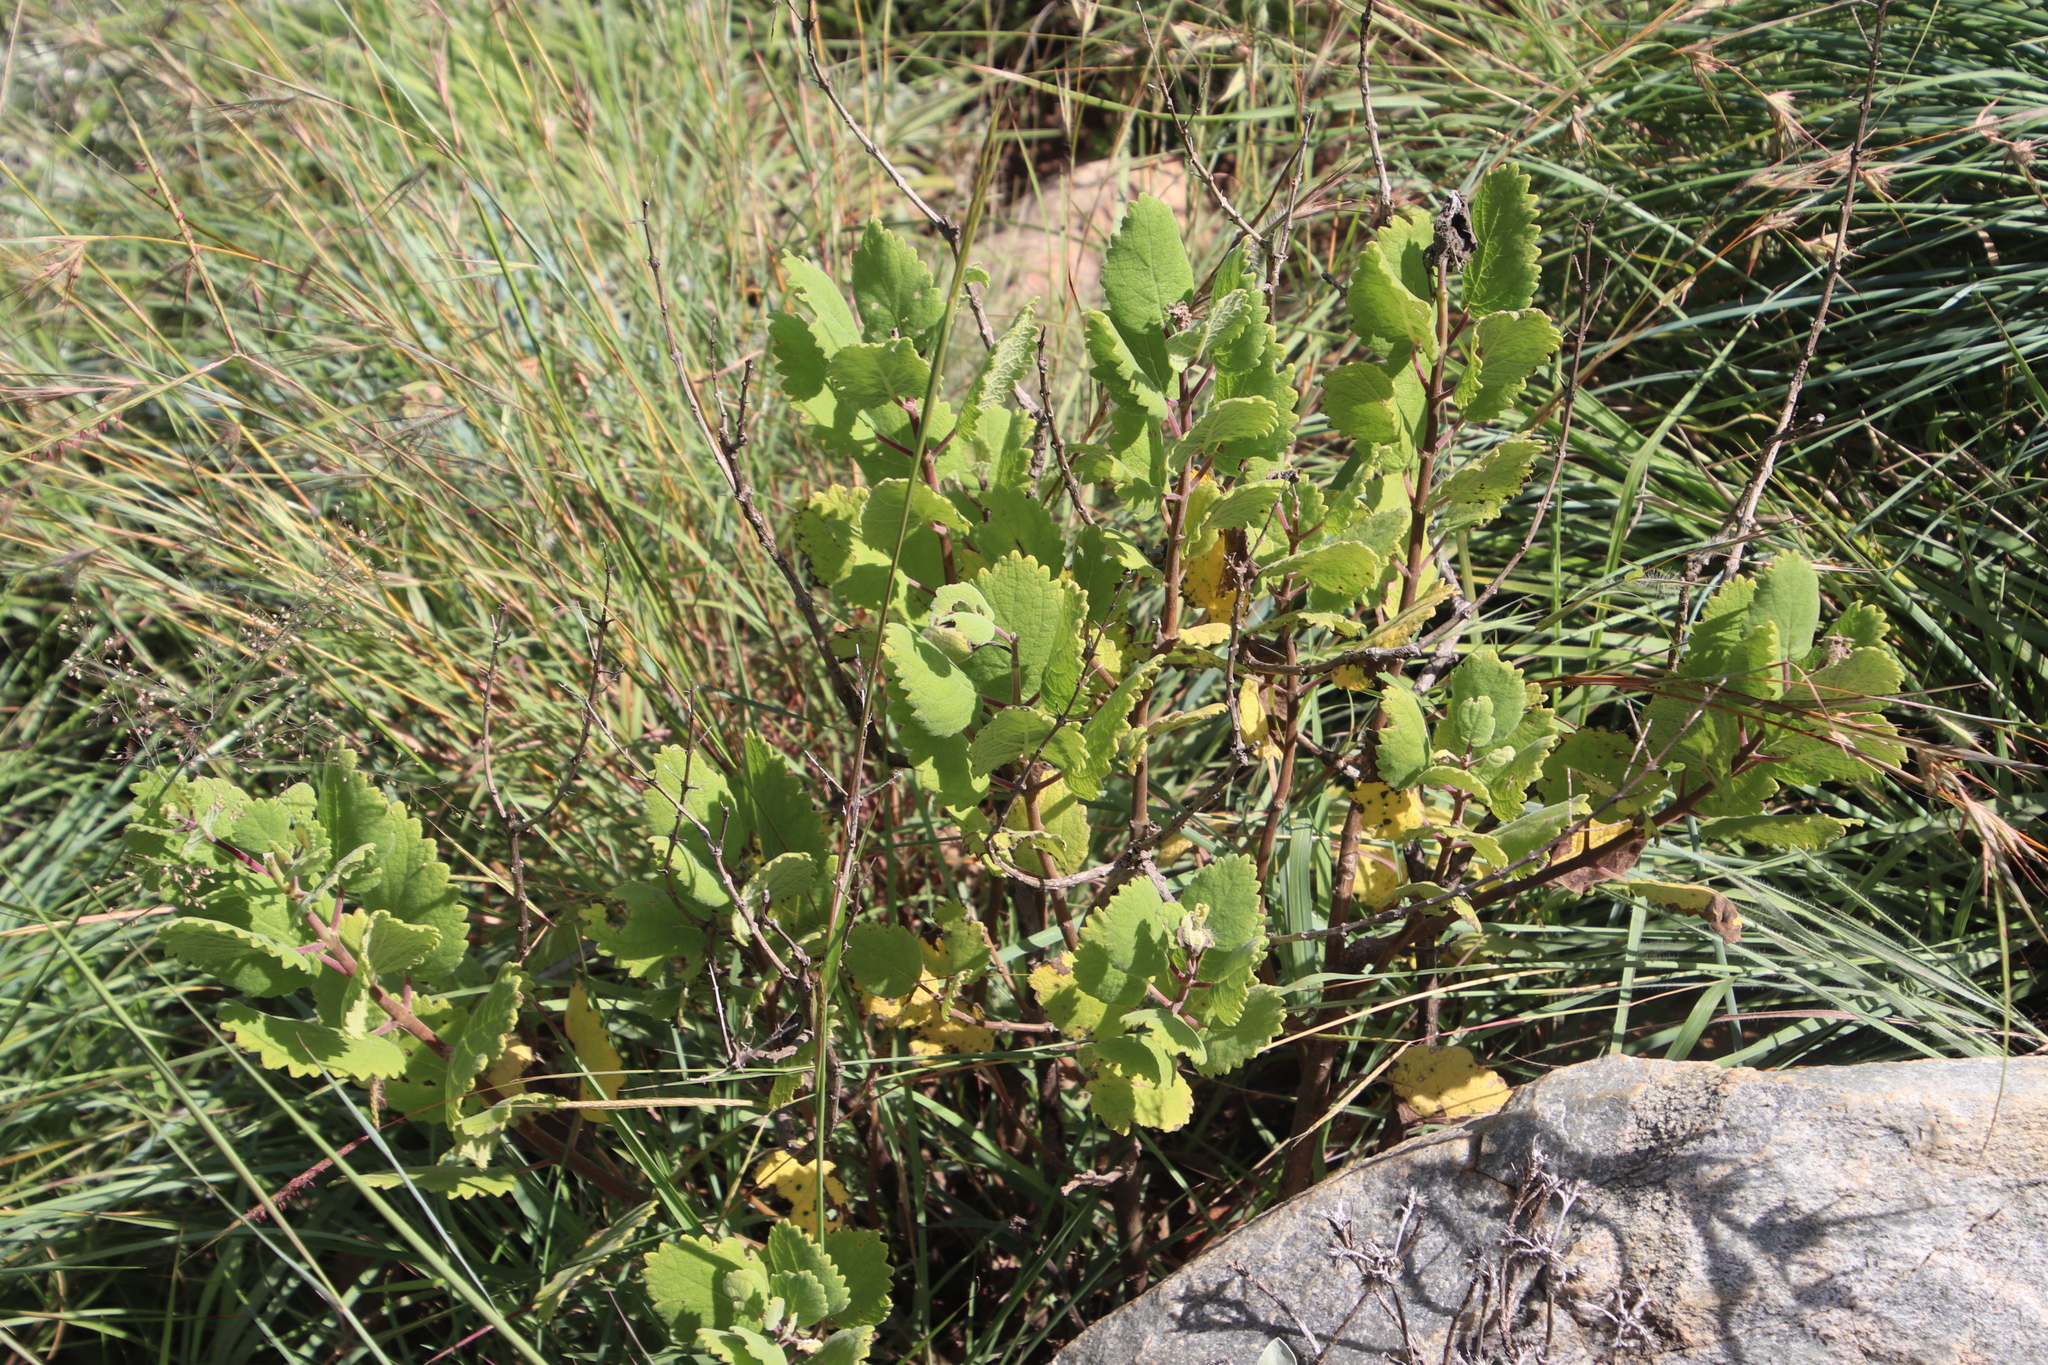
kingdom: Plantae
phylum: Tracheophyta
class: Magnoliopsida
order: Lamiales
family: Lamiaceae
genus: Tetradenia
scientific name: Tetradenia riparia
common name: Gingerbush
